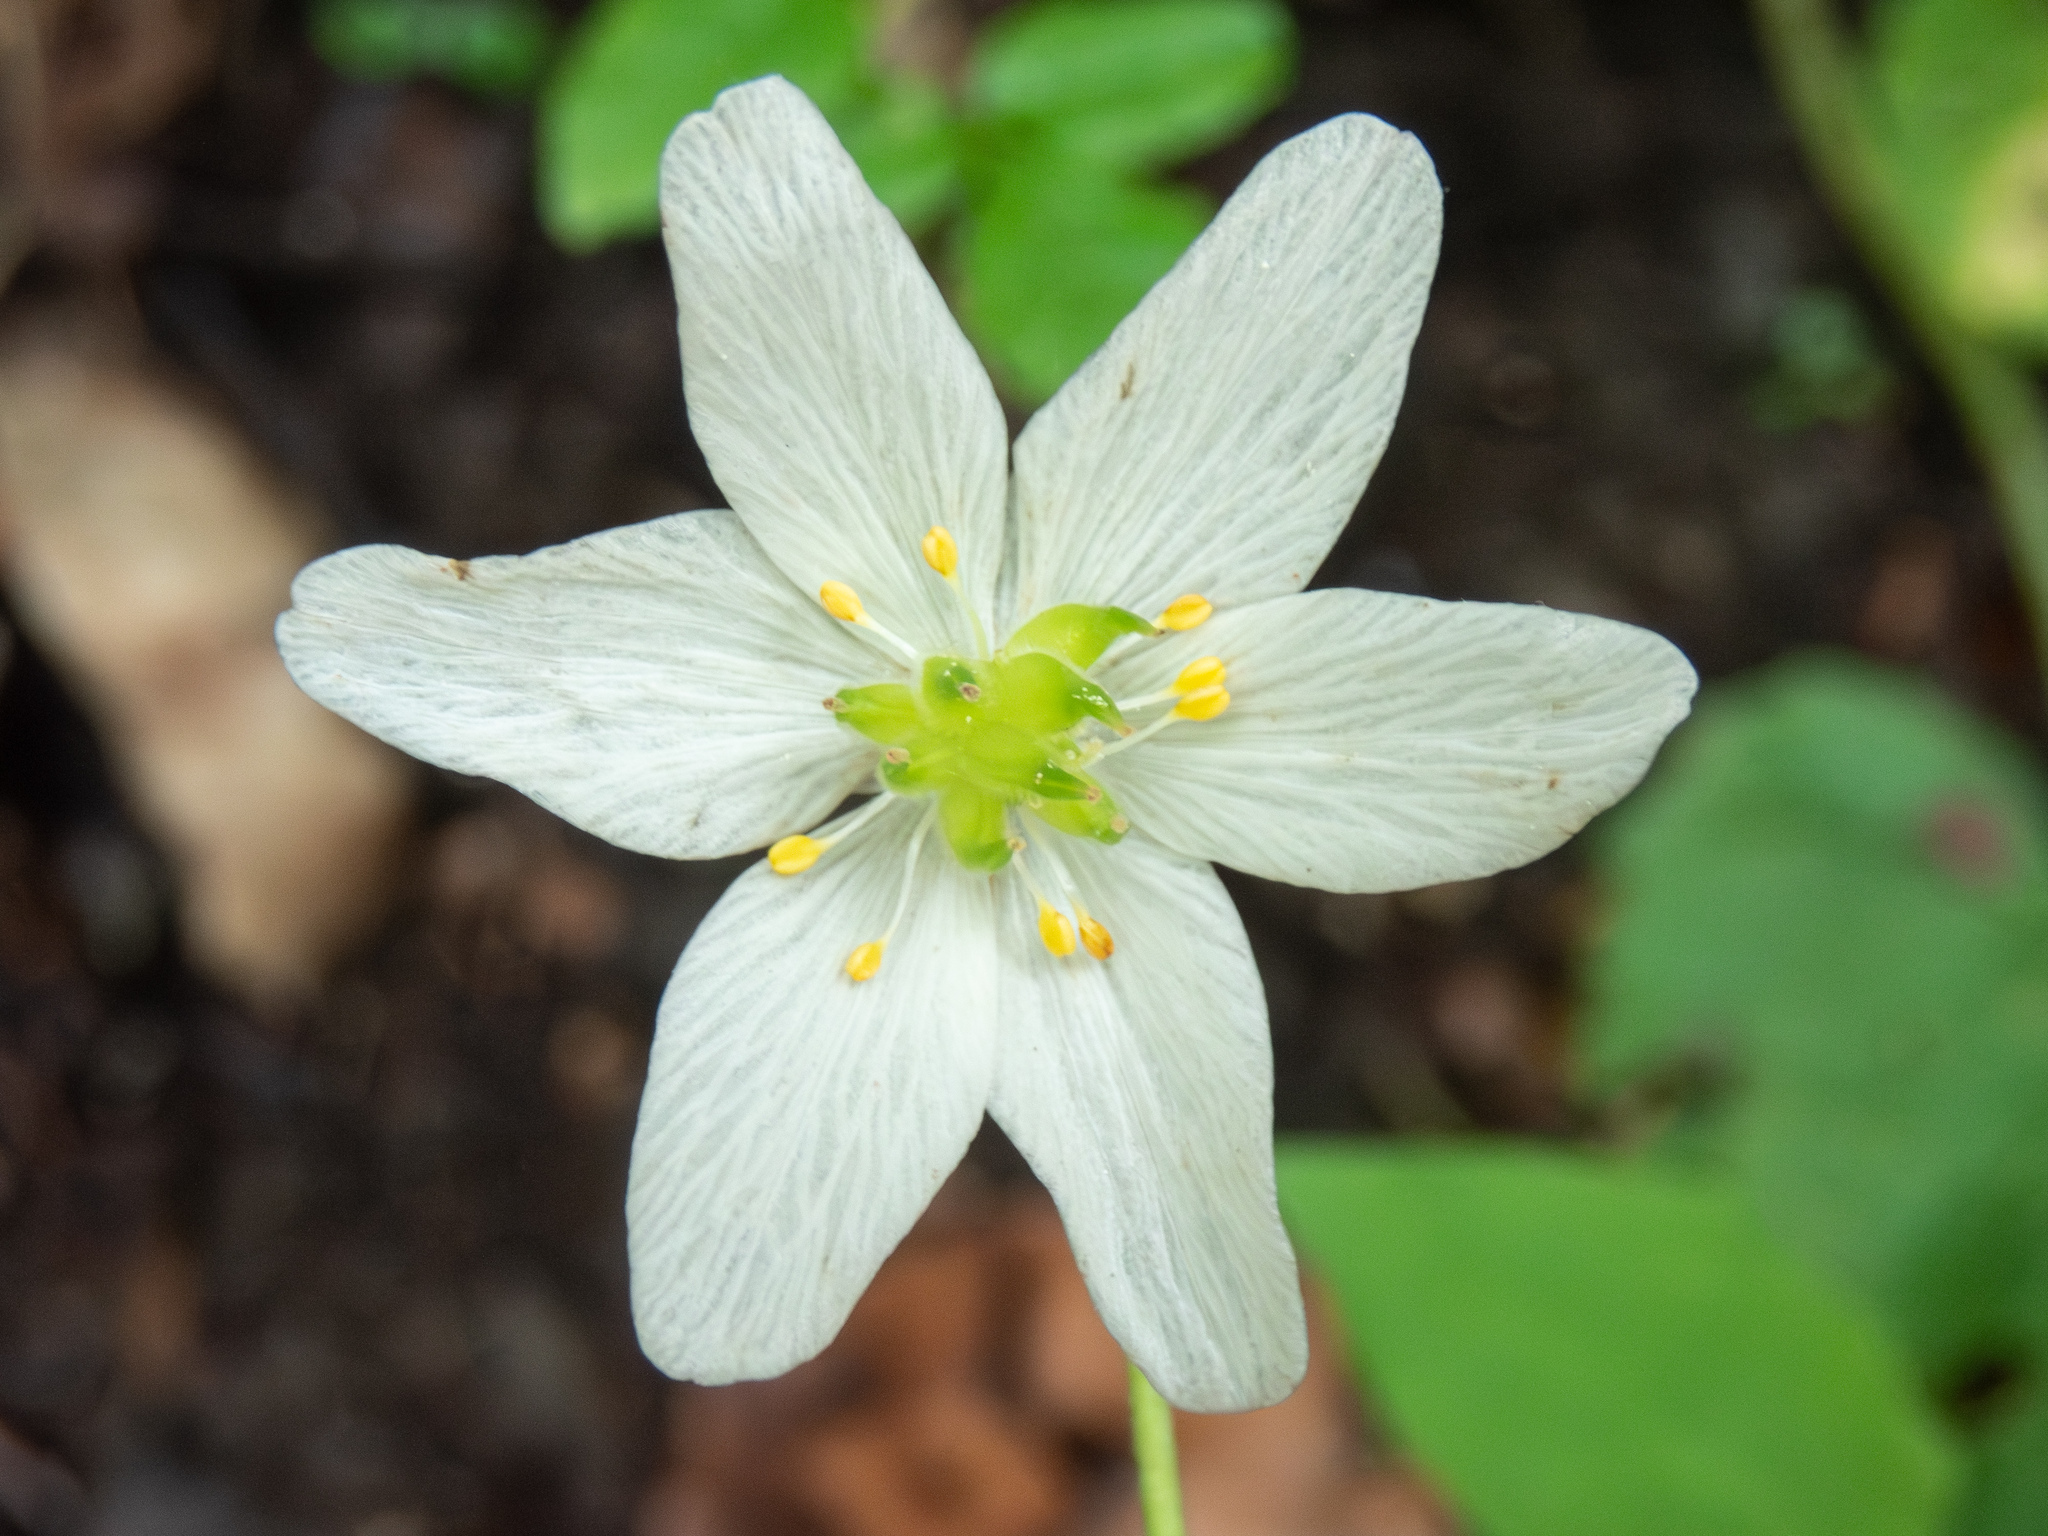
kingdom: Plantae
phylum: Tracheophyta
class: Magnoliopsida
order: Ranunculales
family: Ranunculaceae
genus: Anemone
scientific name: Anemone nemorosa
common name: Wood anemone
